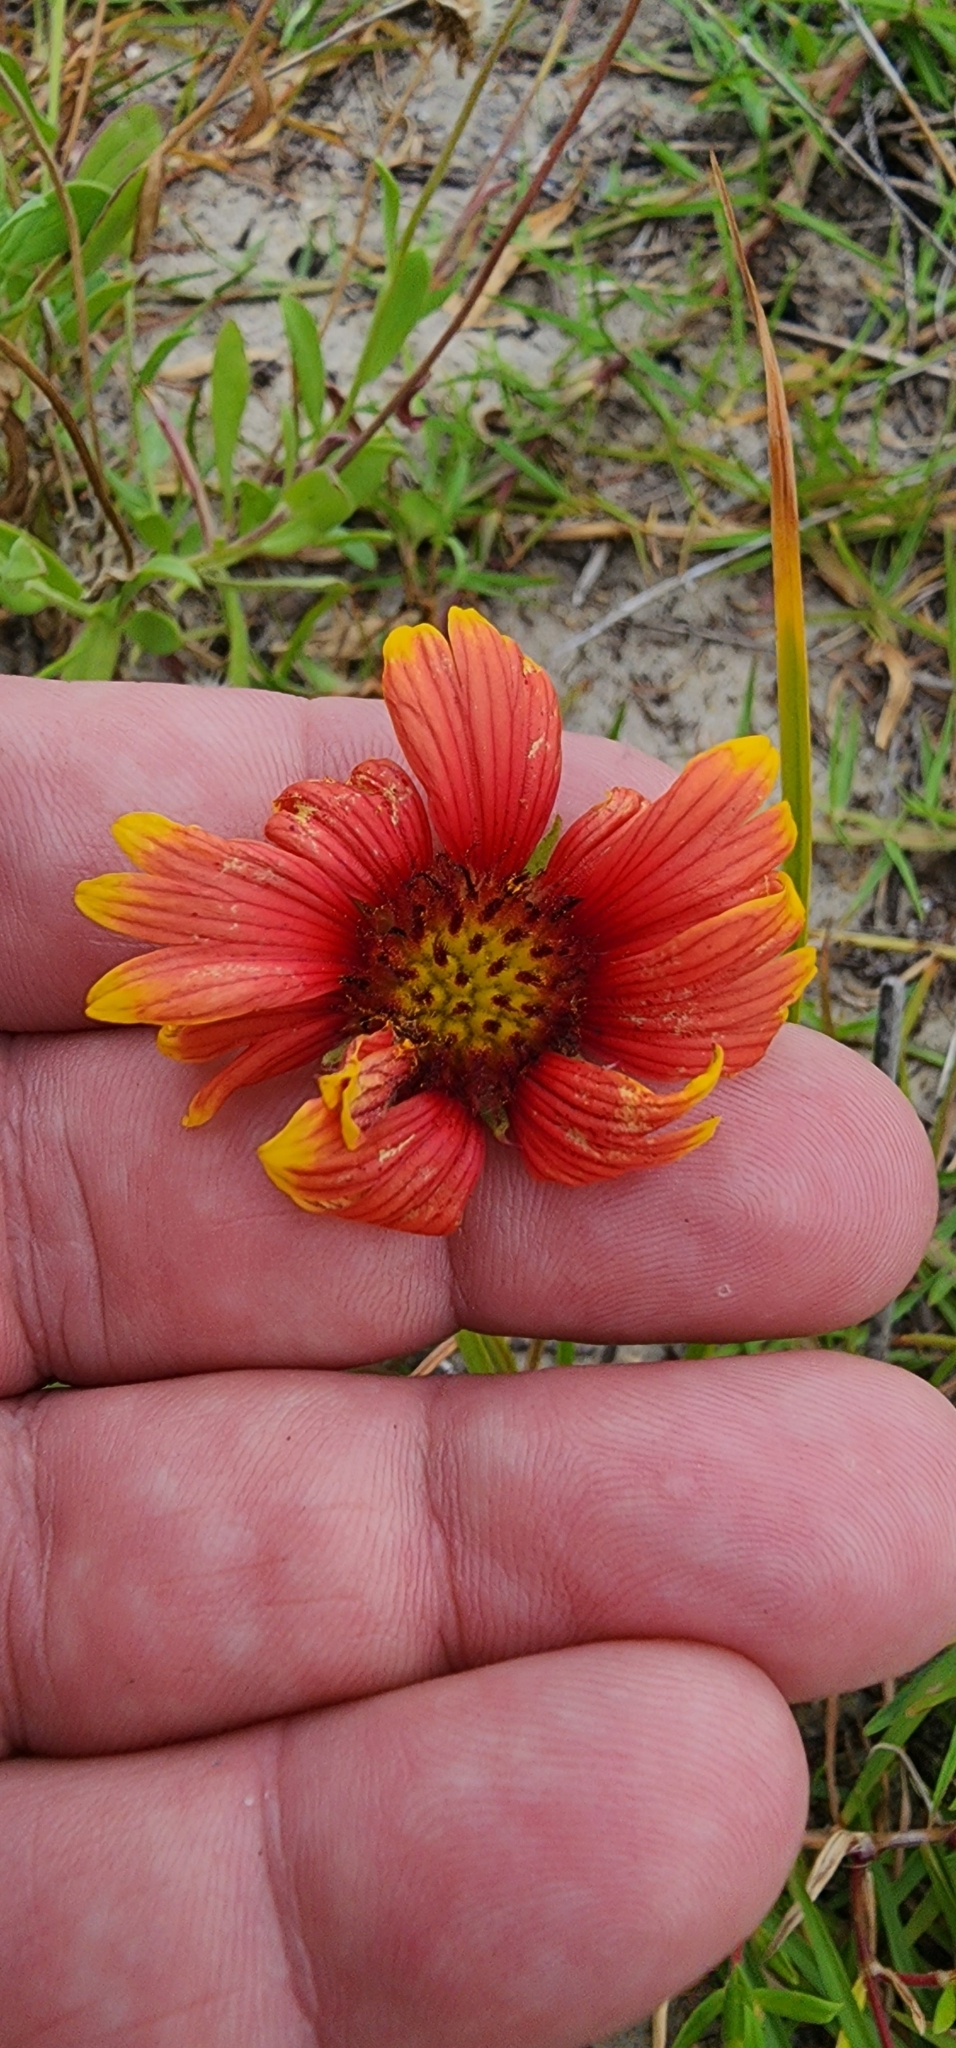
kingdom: Plantae
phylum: Tracheophyta
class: Magnoliopsida
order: Asterales
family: Asteraceae
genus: Gaillardia
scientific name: Gaillardia pulchella
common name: Firewheel
